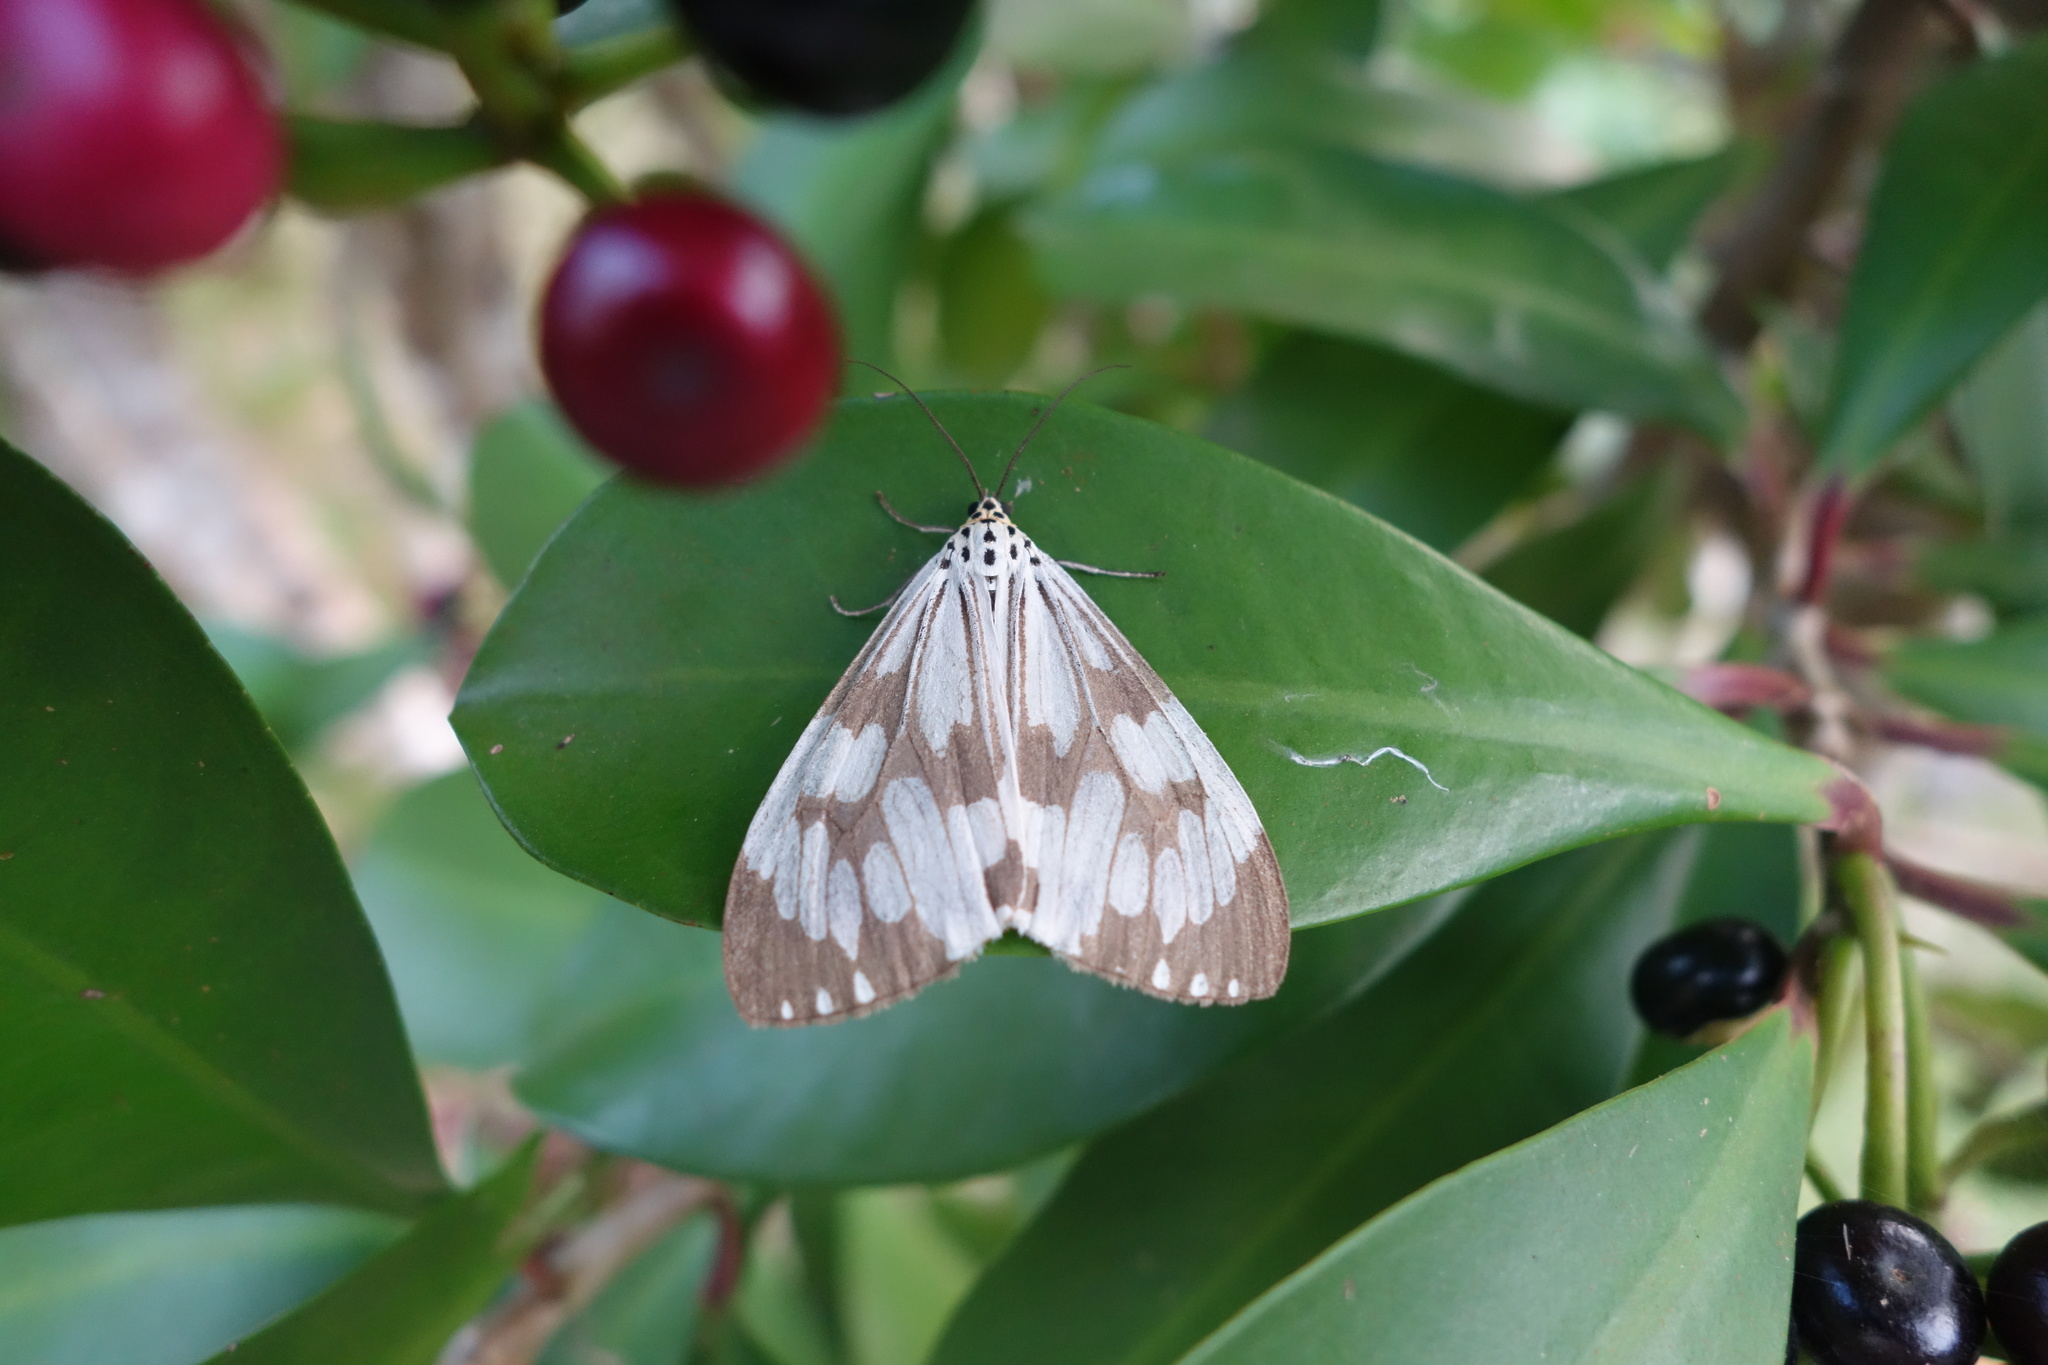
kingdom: Animalia
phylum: Arthropoda
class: Insecta
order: Lepidoptera
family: Erebidae
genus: Nyctemera
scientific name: Nyctemera adversata
